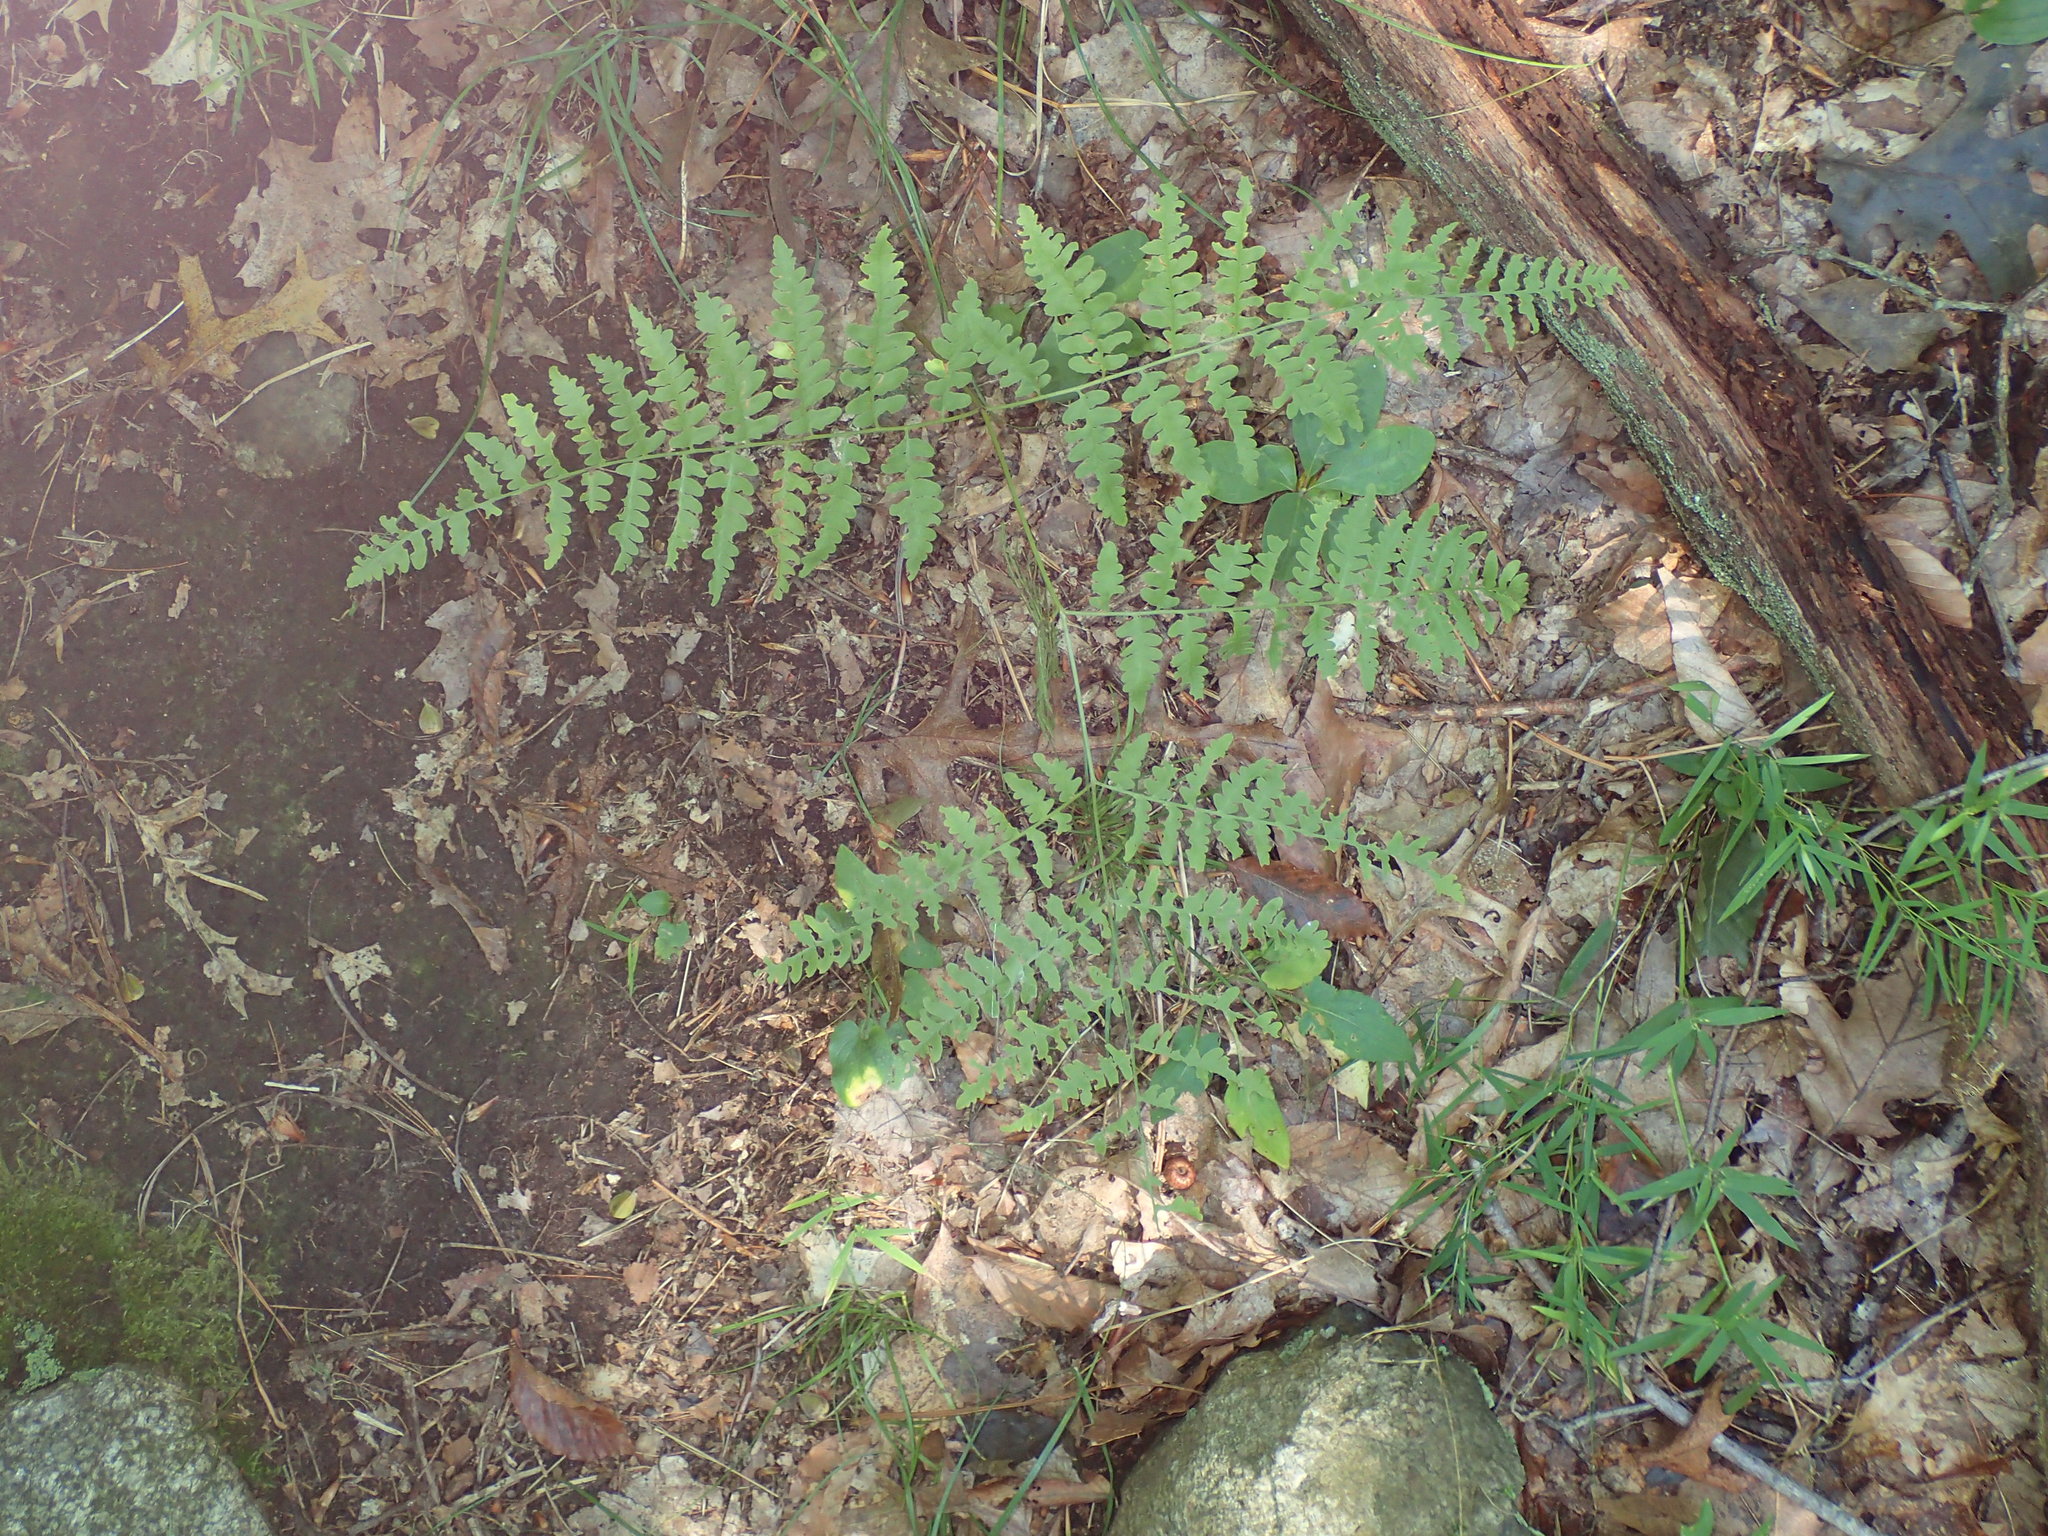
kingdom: Plantae
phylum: Tracheophyta
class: Polypodiopsida
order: Polypodiales
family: Dennstaedtiaceae
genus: Pteridium
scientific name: Pteridium aquilinum
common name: Bracken
